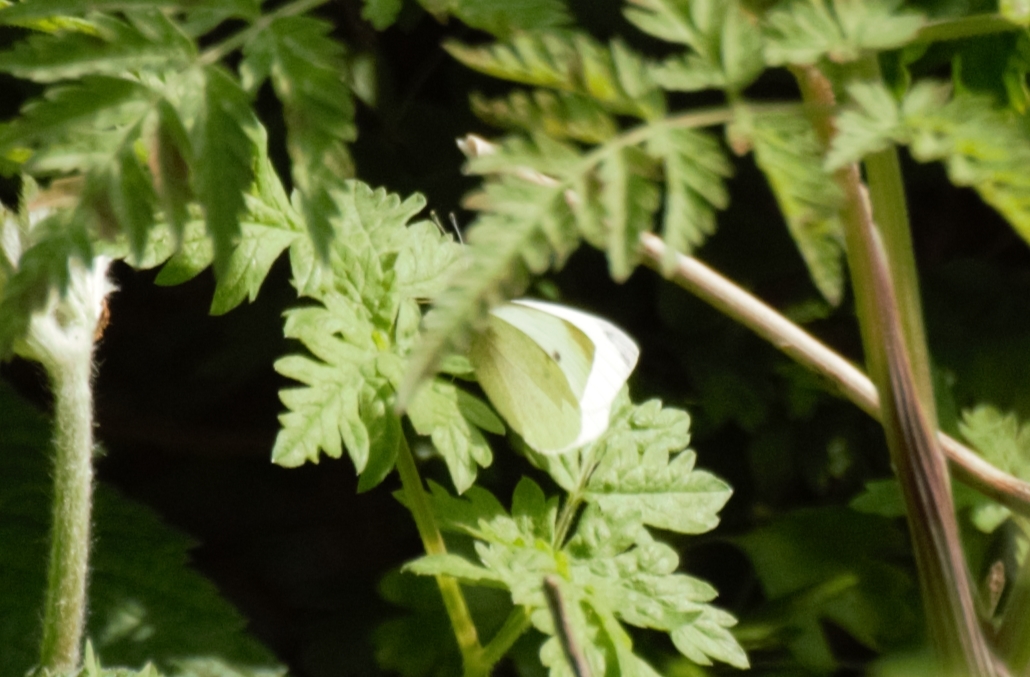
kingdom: Animalia
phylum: Arthropoda
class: Insecta
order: Lepidoptera
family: Pieridae
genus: Pieris
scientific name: Pieris rapae
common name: Small white
